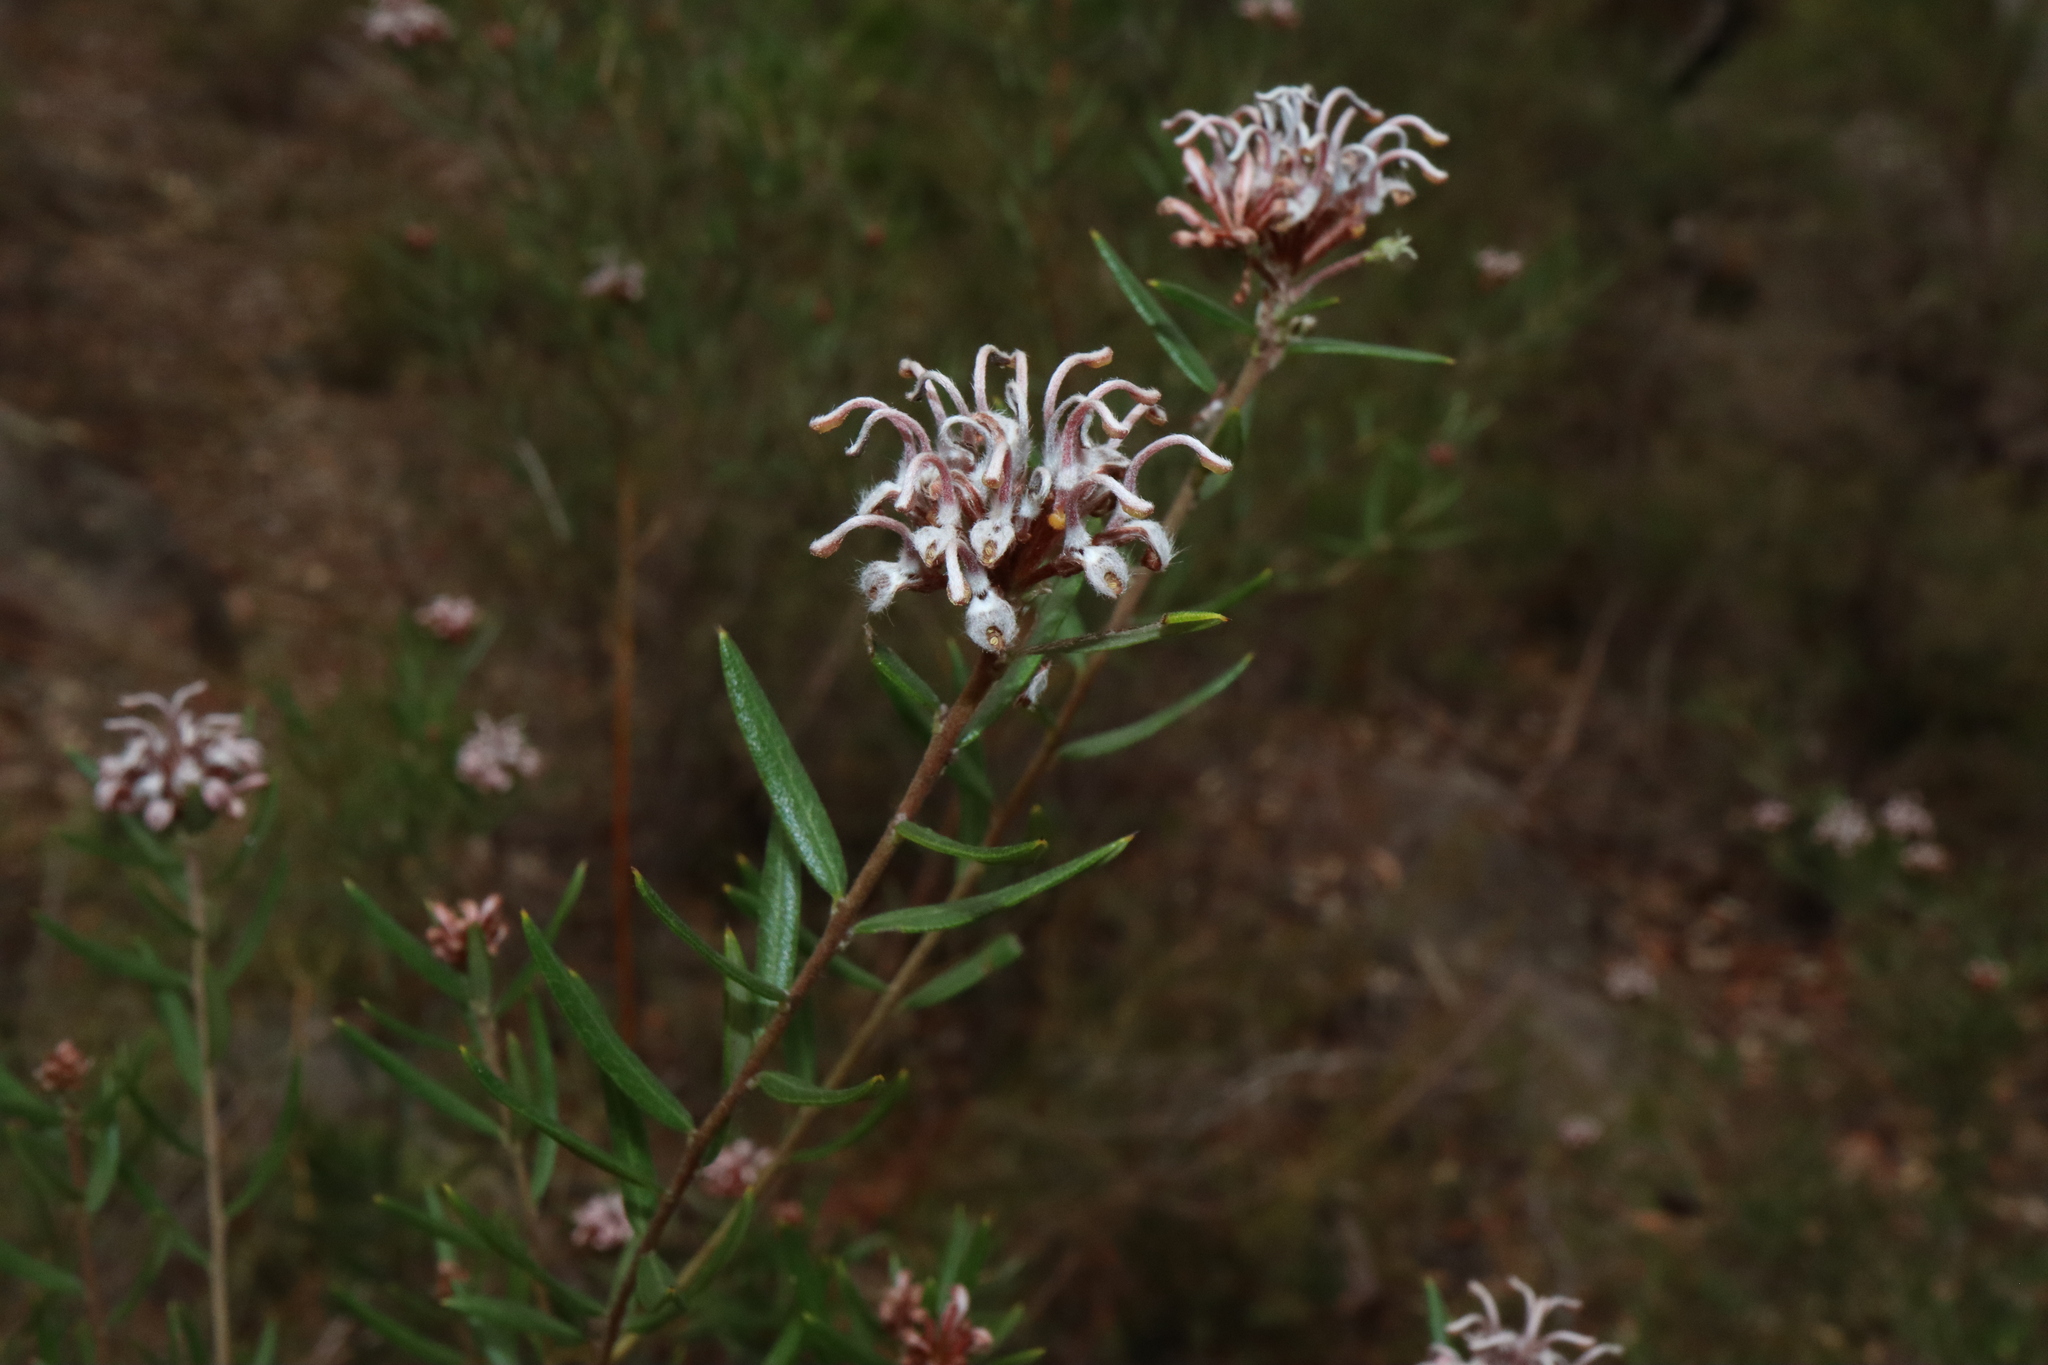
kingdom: Plantae
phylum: Tracheophyta
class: Magnoliopsida
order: Proteales
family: Proteaceae
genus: Grevillea
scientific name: Grevillea sphacelata
